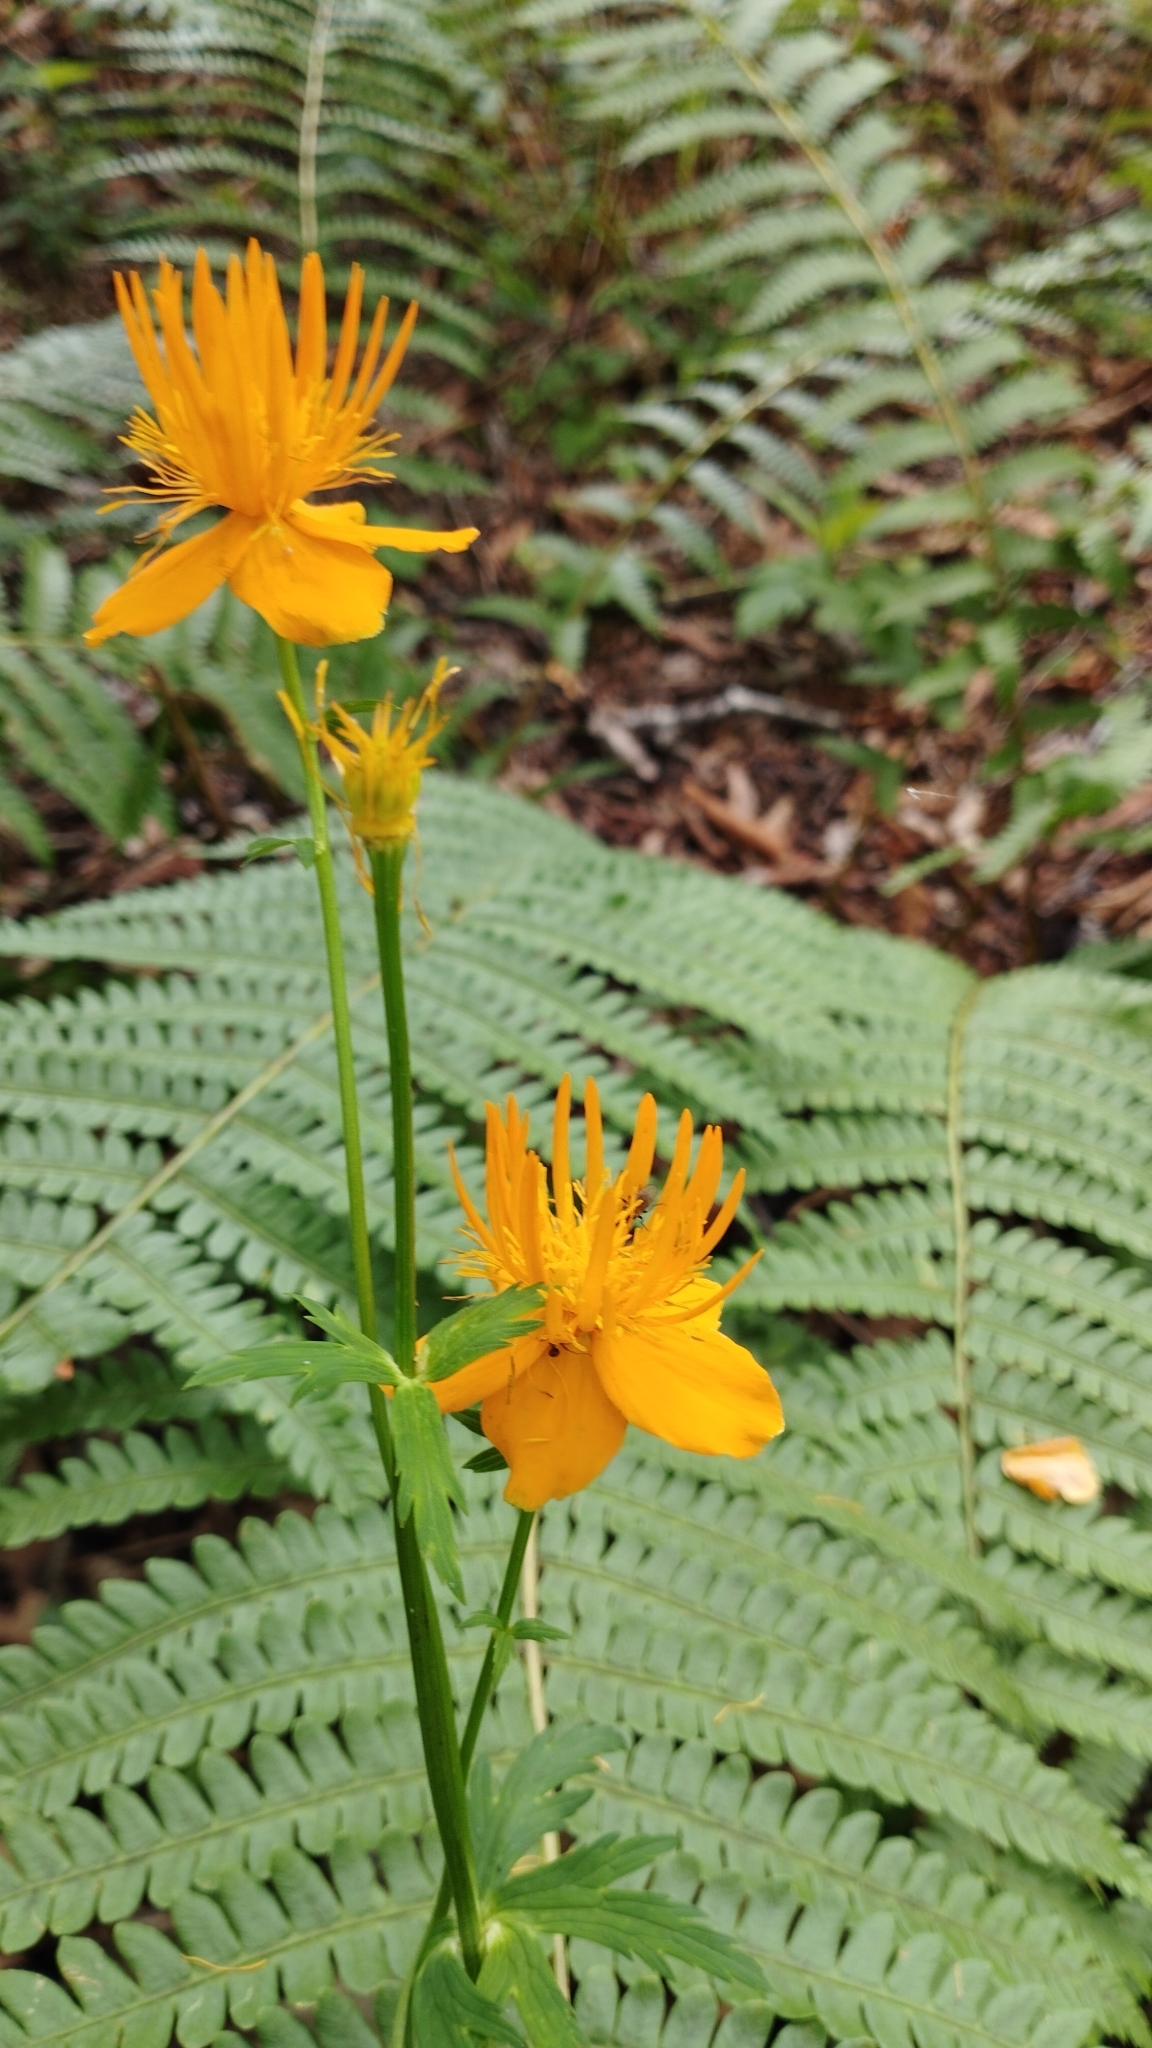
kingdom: Plantae
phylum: Tracheophyta
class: Magnoliopsida
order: Ranunculales
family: Ranunculaceae
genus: Trollius
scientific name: Trollius chinensis
